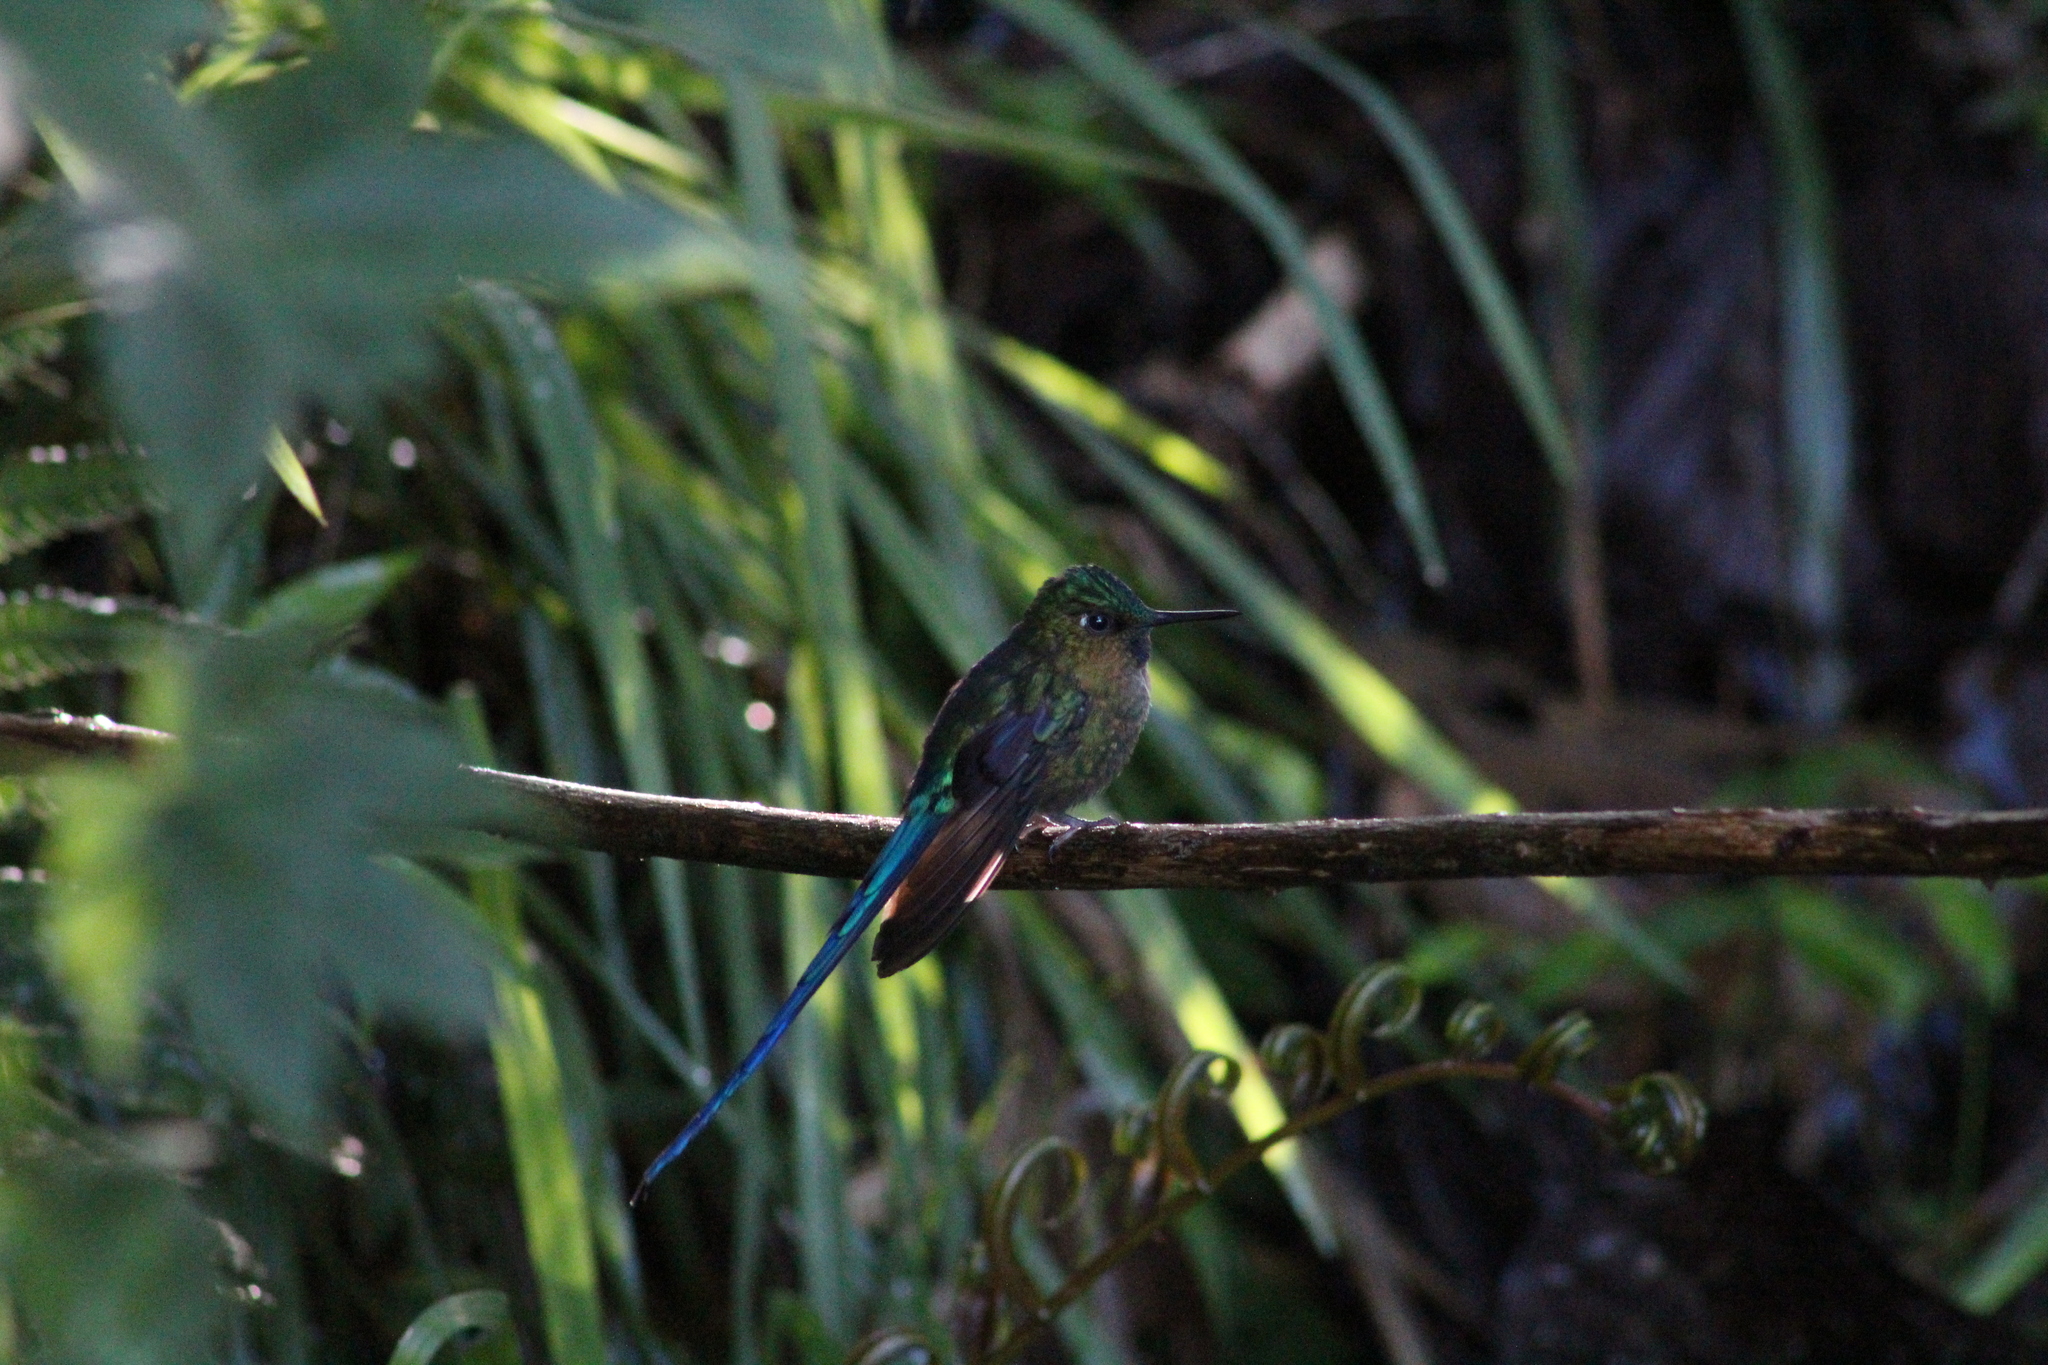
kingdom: Animalia
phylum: Chordata
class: Aves
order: Apodiformes
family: Trochilidae
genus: Aglaiocercus
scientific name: Aglaiocercus coelestis
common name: Violet-tailed sylph
